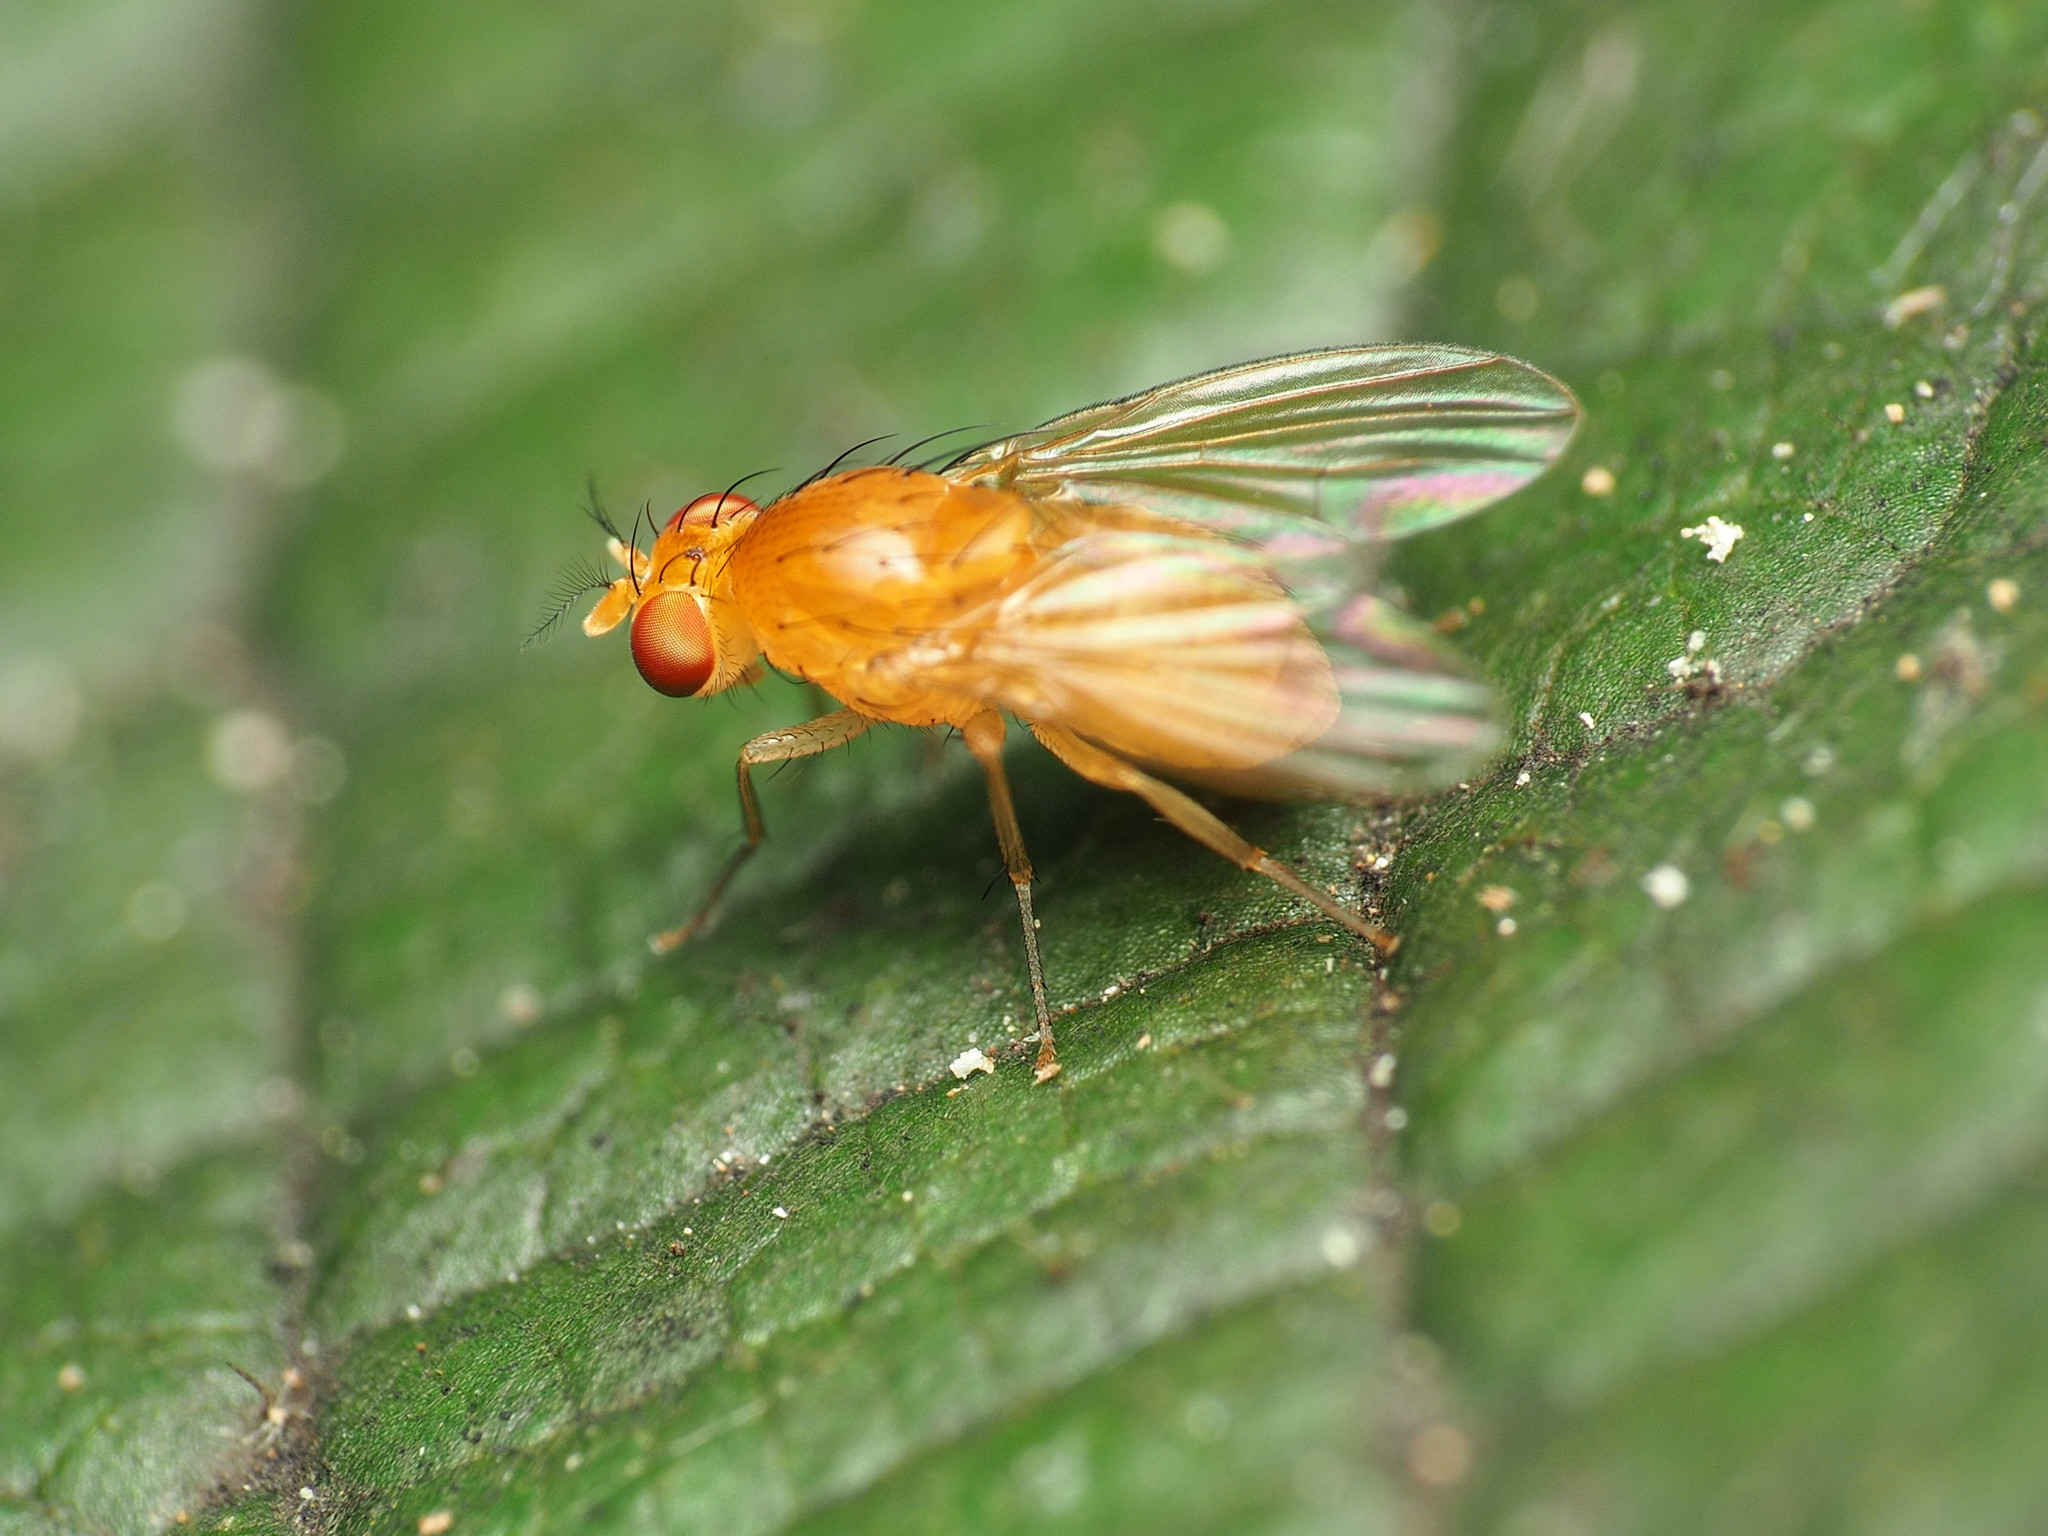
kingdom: Animalia
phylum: Arthropoda
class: Insecta
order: Diptera
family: Lauxaniidae
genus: Neogriphoneura
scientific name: Neogriphoneura sordida
